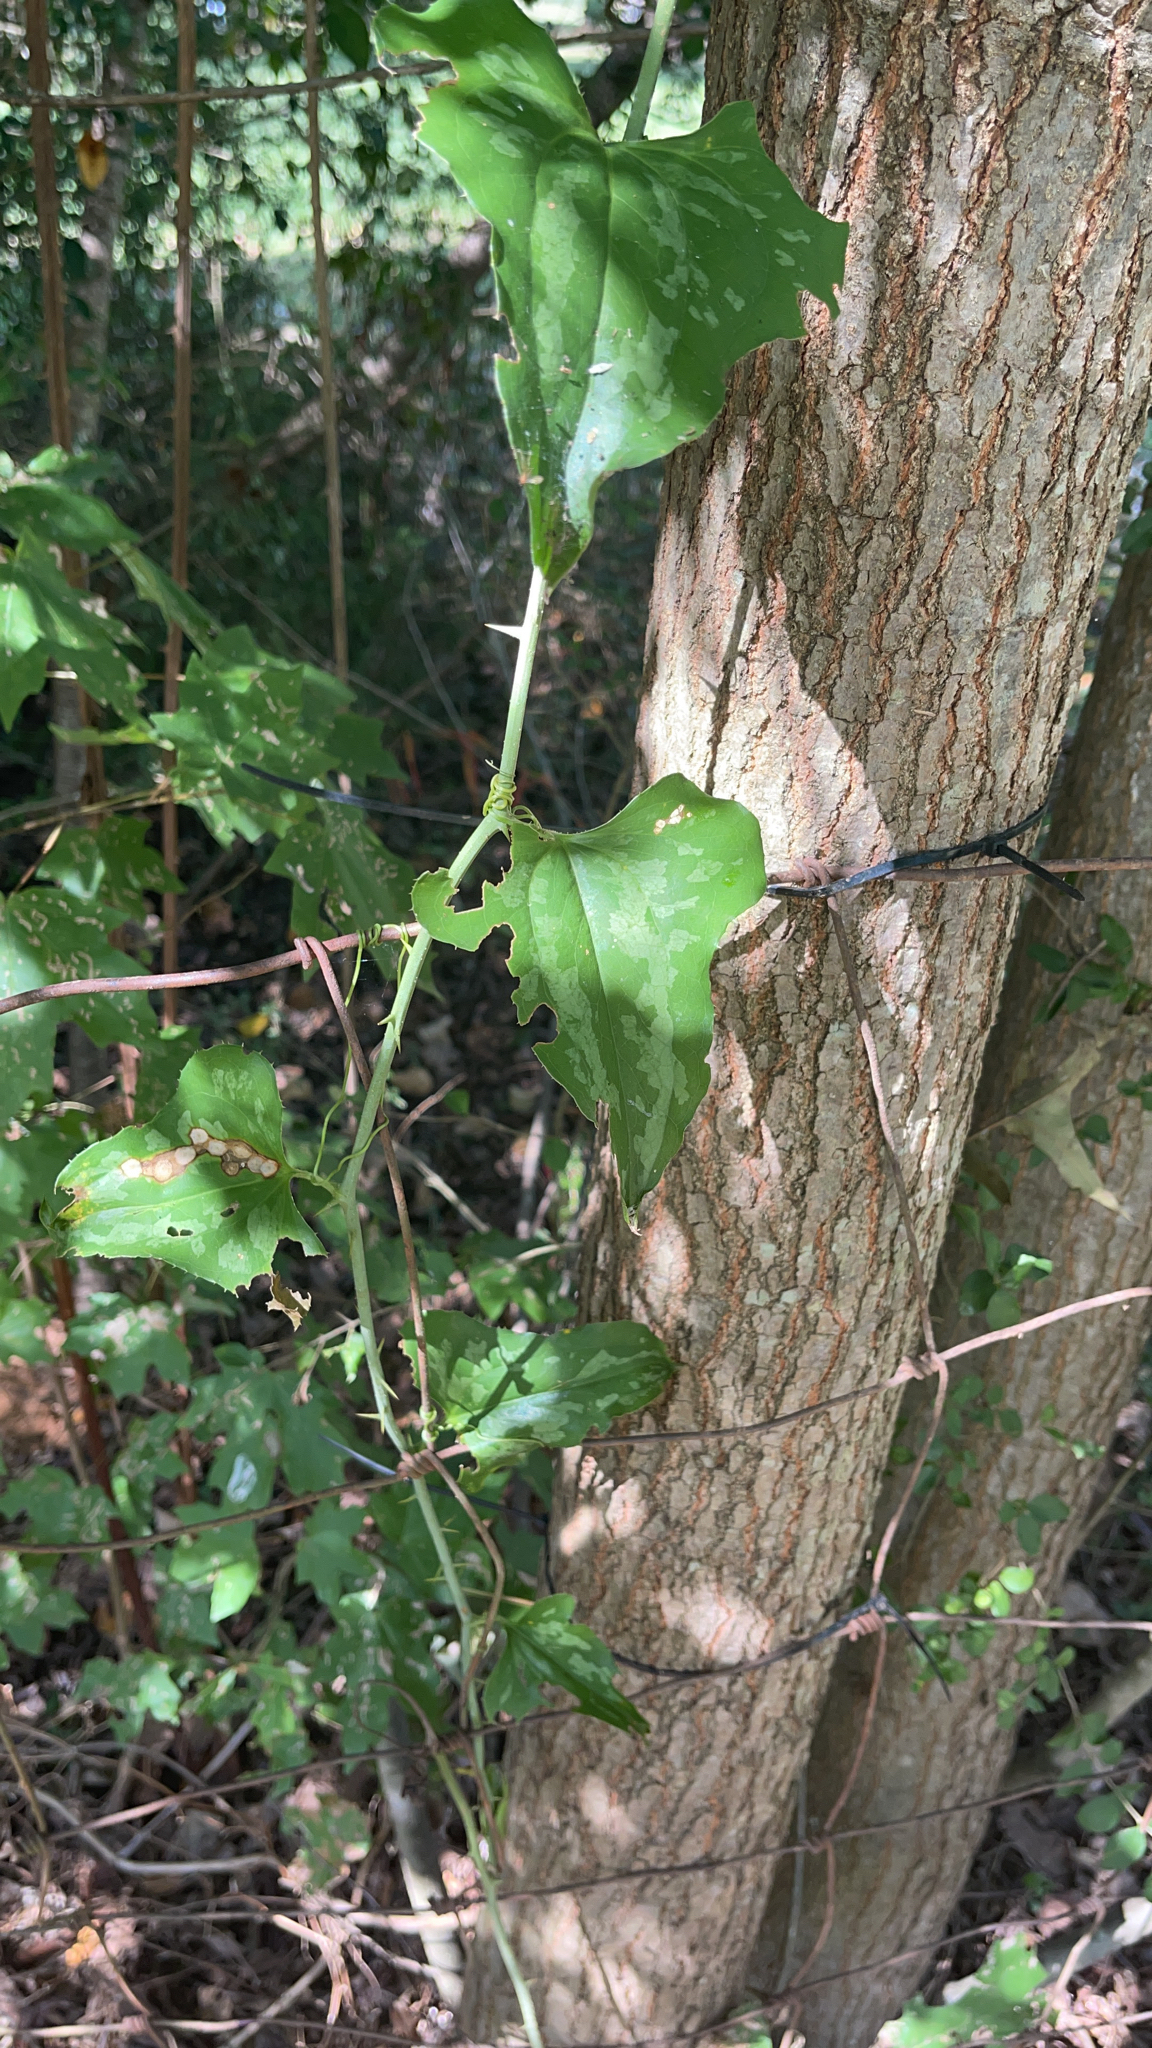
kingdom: Plantae
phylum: Tracheophyta
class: Liliopsida
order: Liliales
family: Smilacaceae
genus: Smilax
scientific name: Smilax bona-nox
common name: Catbrier
